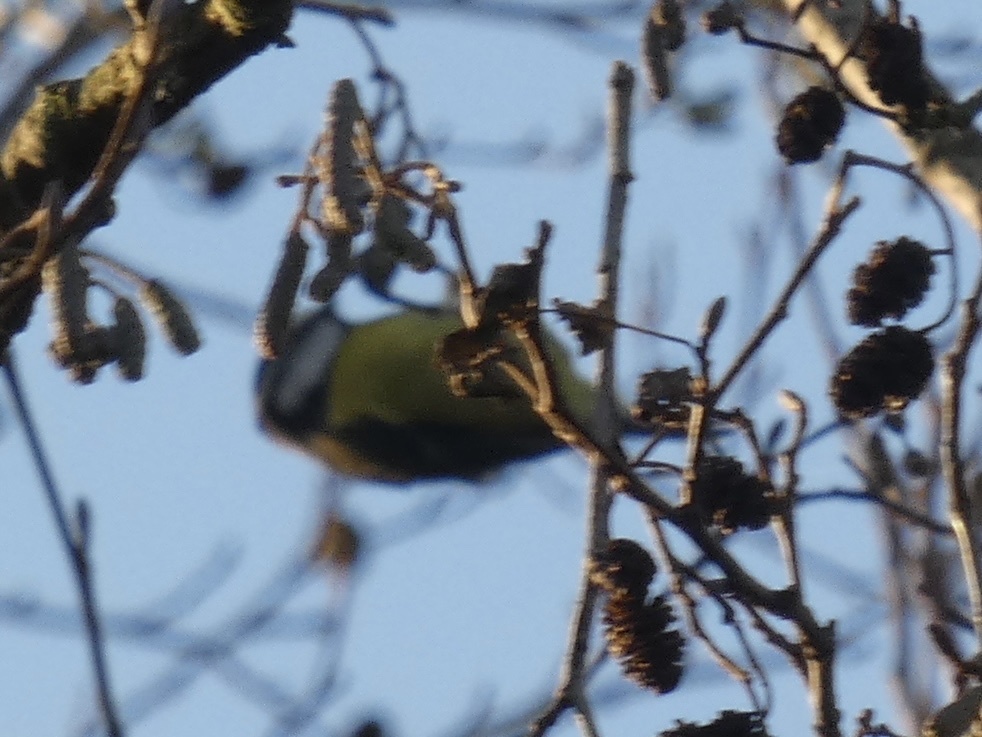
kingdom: Animalia
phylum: Chordata
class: Aves
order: Passeriformes
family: Paridae
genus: Cyanistes
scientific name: Cyanistes caeruleus
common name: Eurasian blue tit
